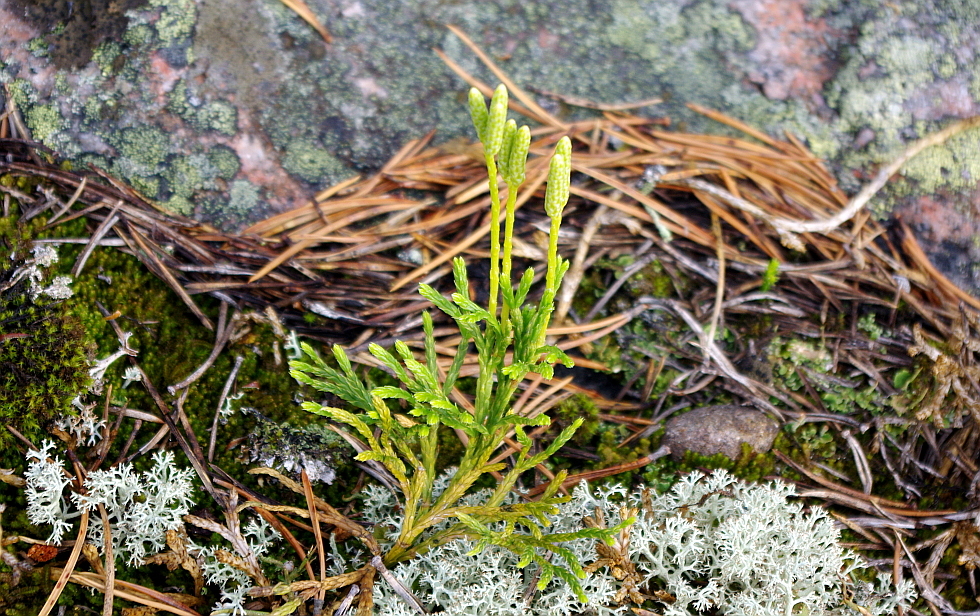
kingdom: Plantae
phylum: Tracheophyta
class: Lycopodiopsida
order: Lycopodiales
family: Lycopodiaceae
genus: Diphasiastrum
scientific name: Diphasiastrum complanatum
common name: Northern running-pine
